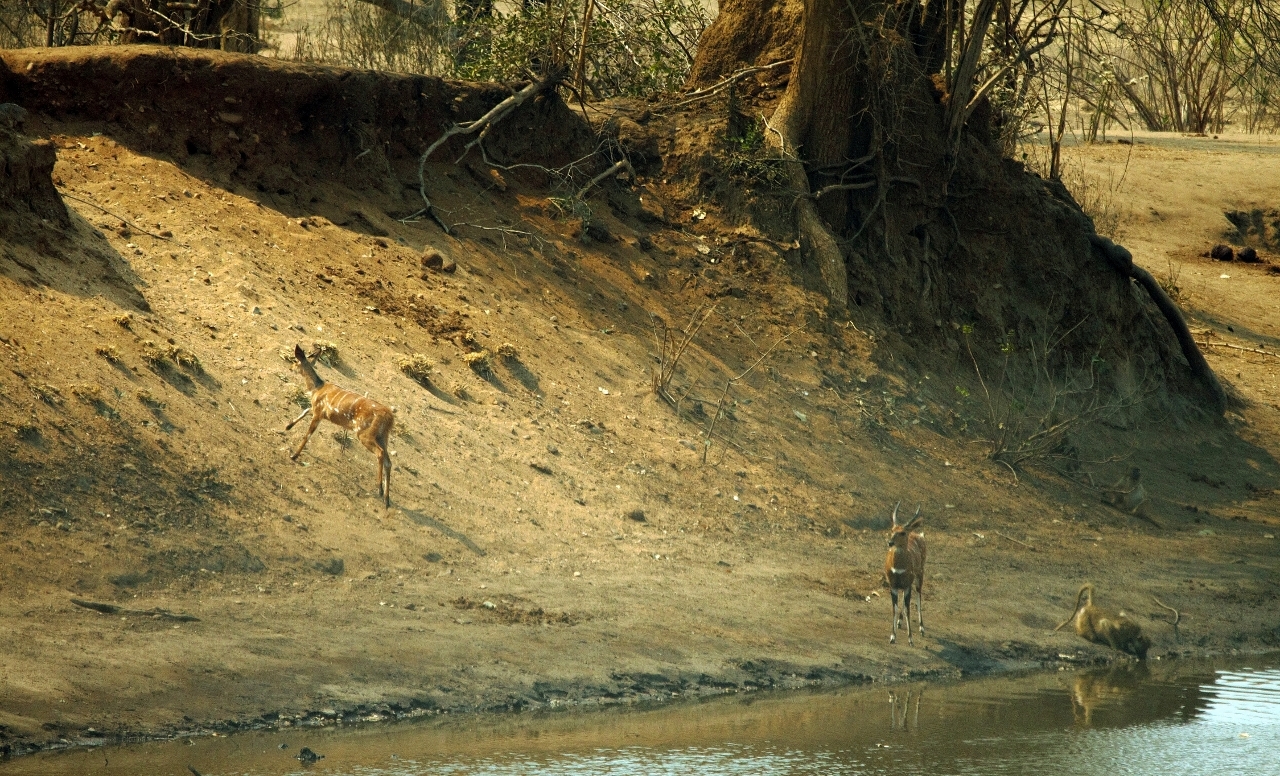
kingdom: Animalia
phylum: Chordata
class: Mammalia
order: Artiodactyla
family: Bovidae
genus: Tragelaphus
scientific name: Tragelaphus scriptus
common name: Bushbuck
